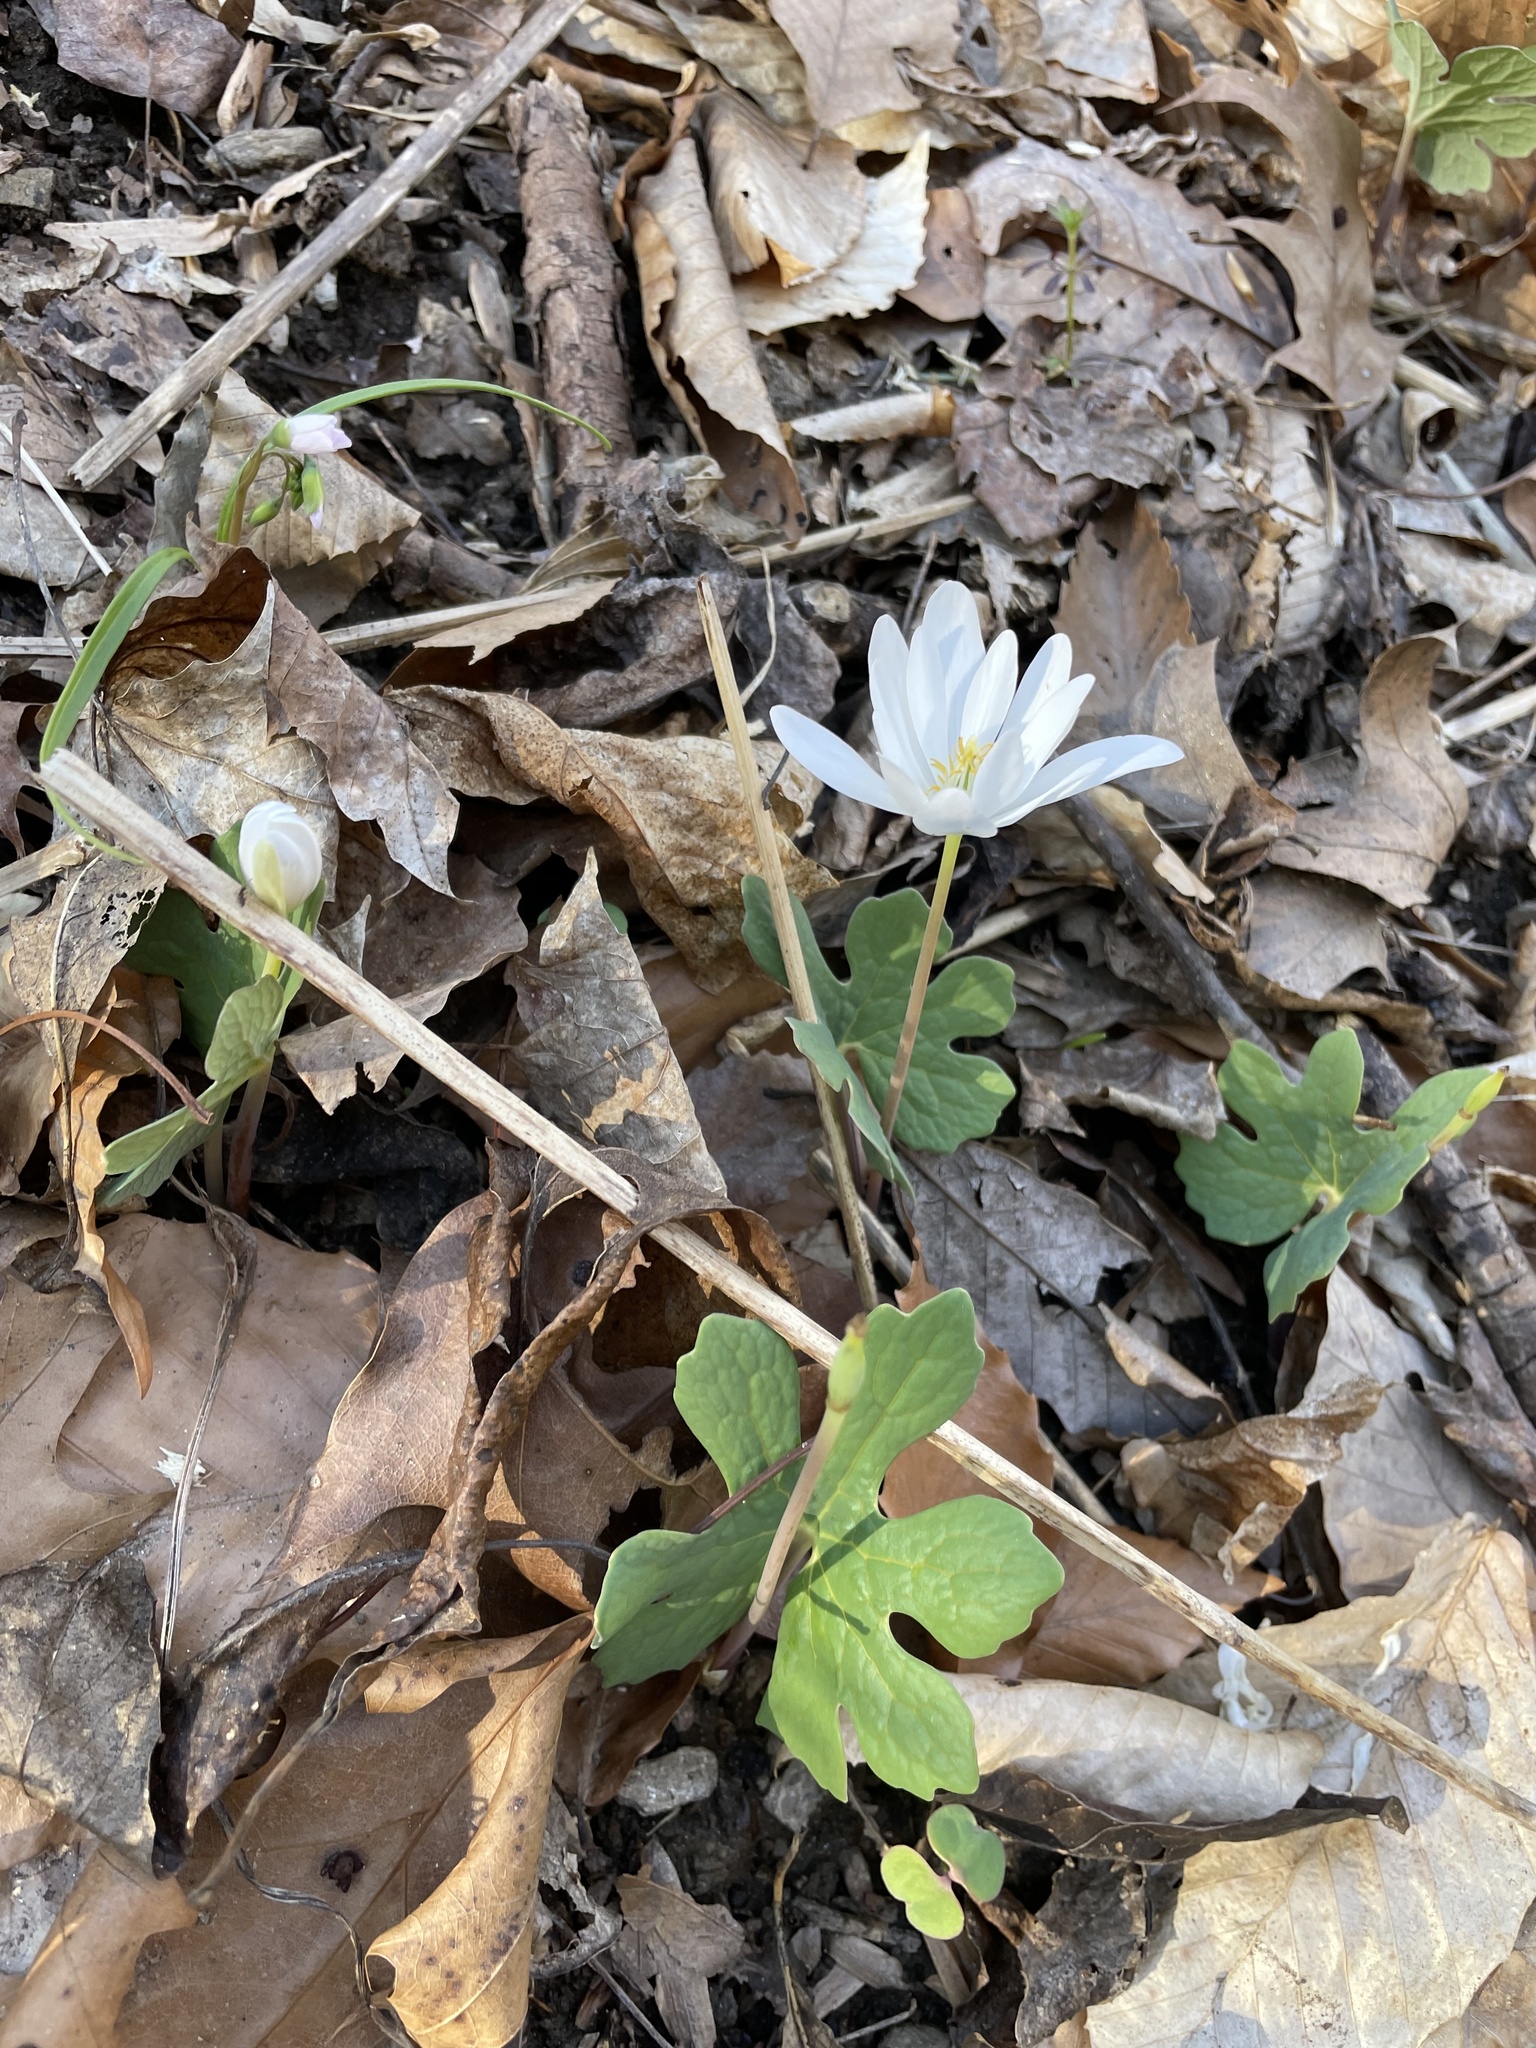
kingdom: Plantae
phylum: Tracheophyta
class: Magnoliopsida
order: Ranunculales
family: Papaveraceae
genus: Sanguinaria
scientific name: Sanguinaria canadensis
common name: Bloodroot
